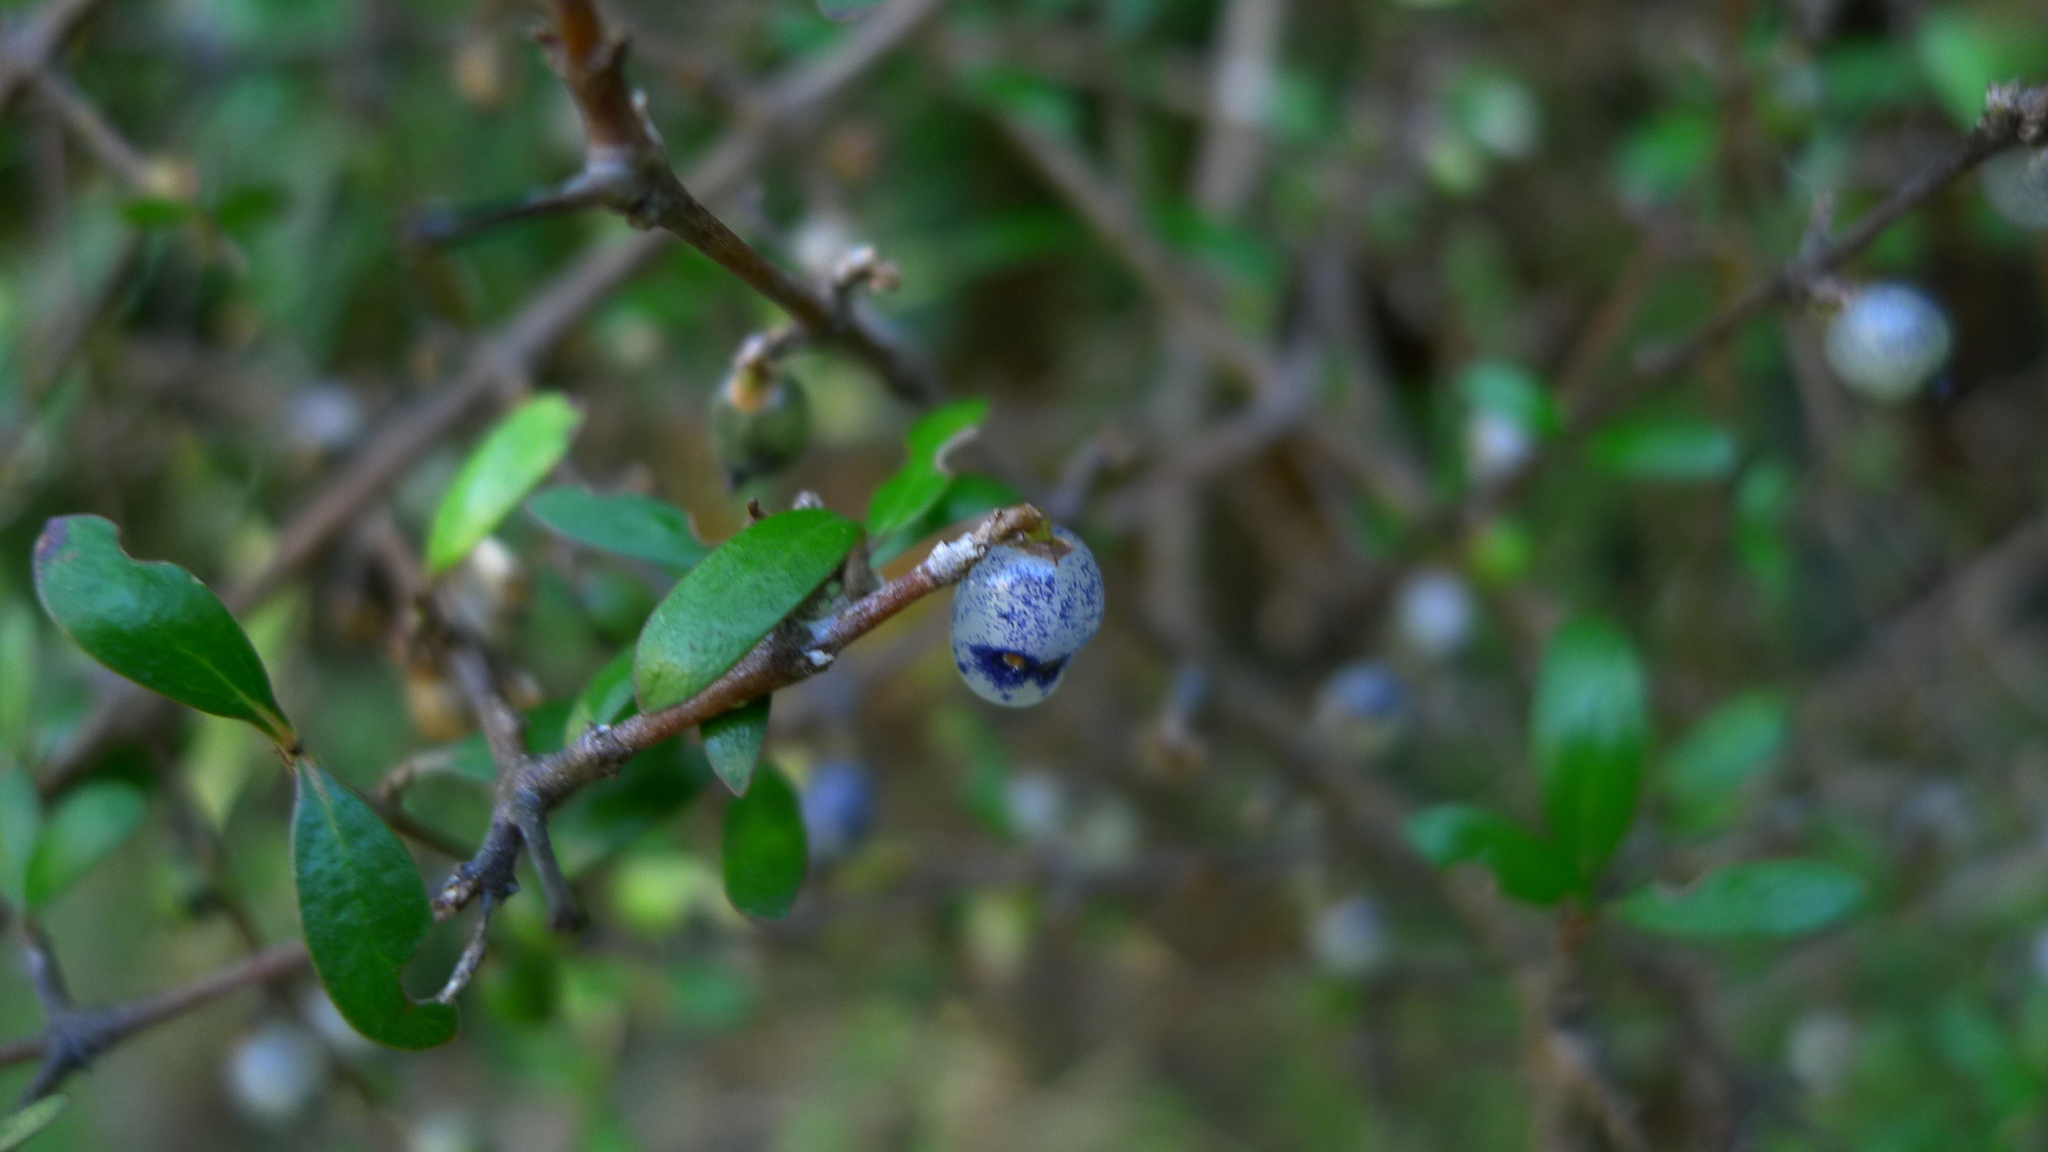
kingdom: Plantae
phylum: Tracheophyta
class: Magnoliopsida
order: Gentianales
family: Rubiaceae
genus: Coprosma
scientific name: Coprosma propinqua
